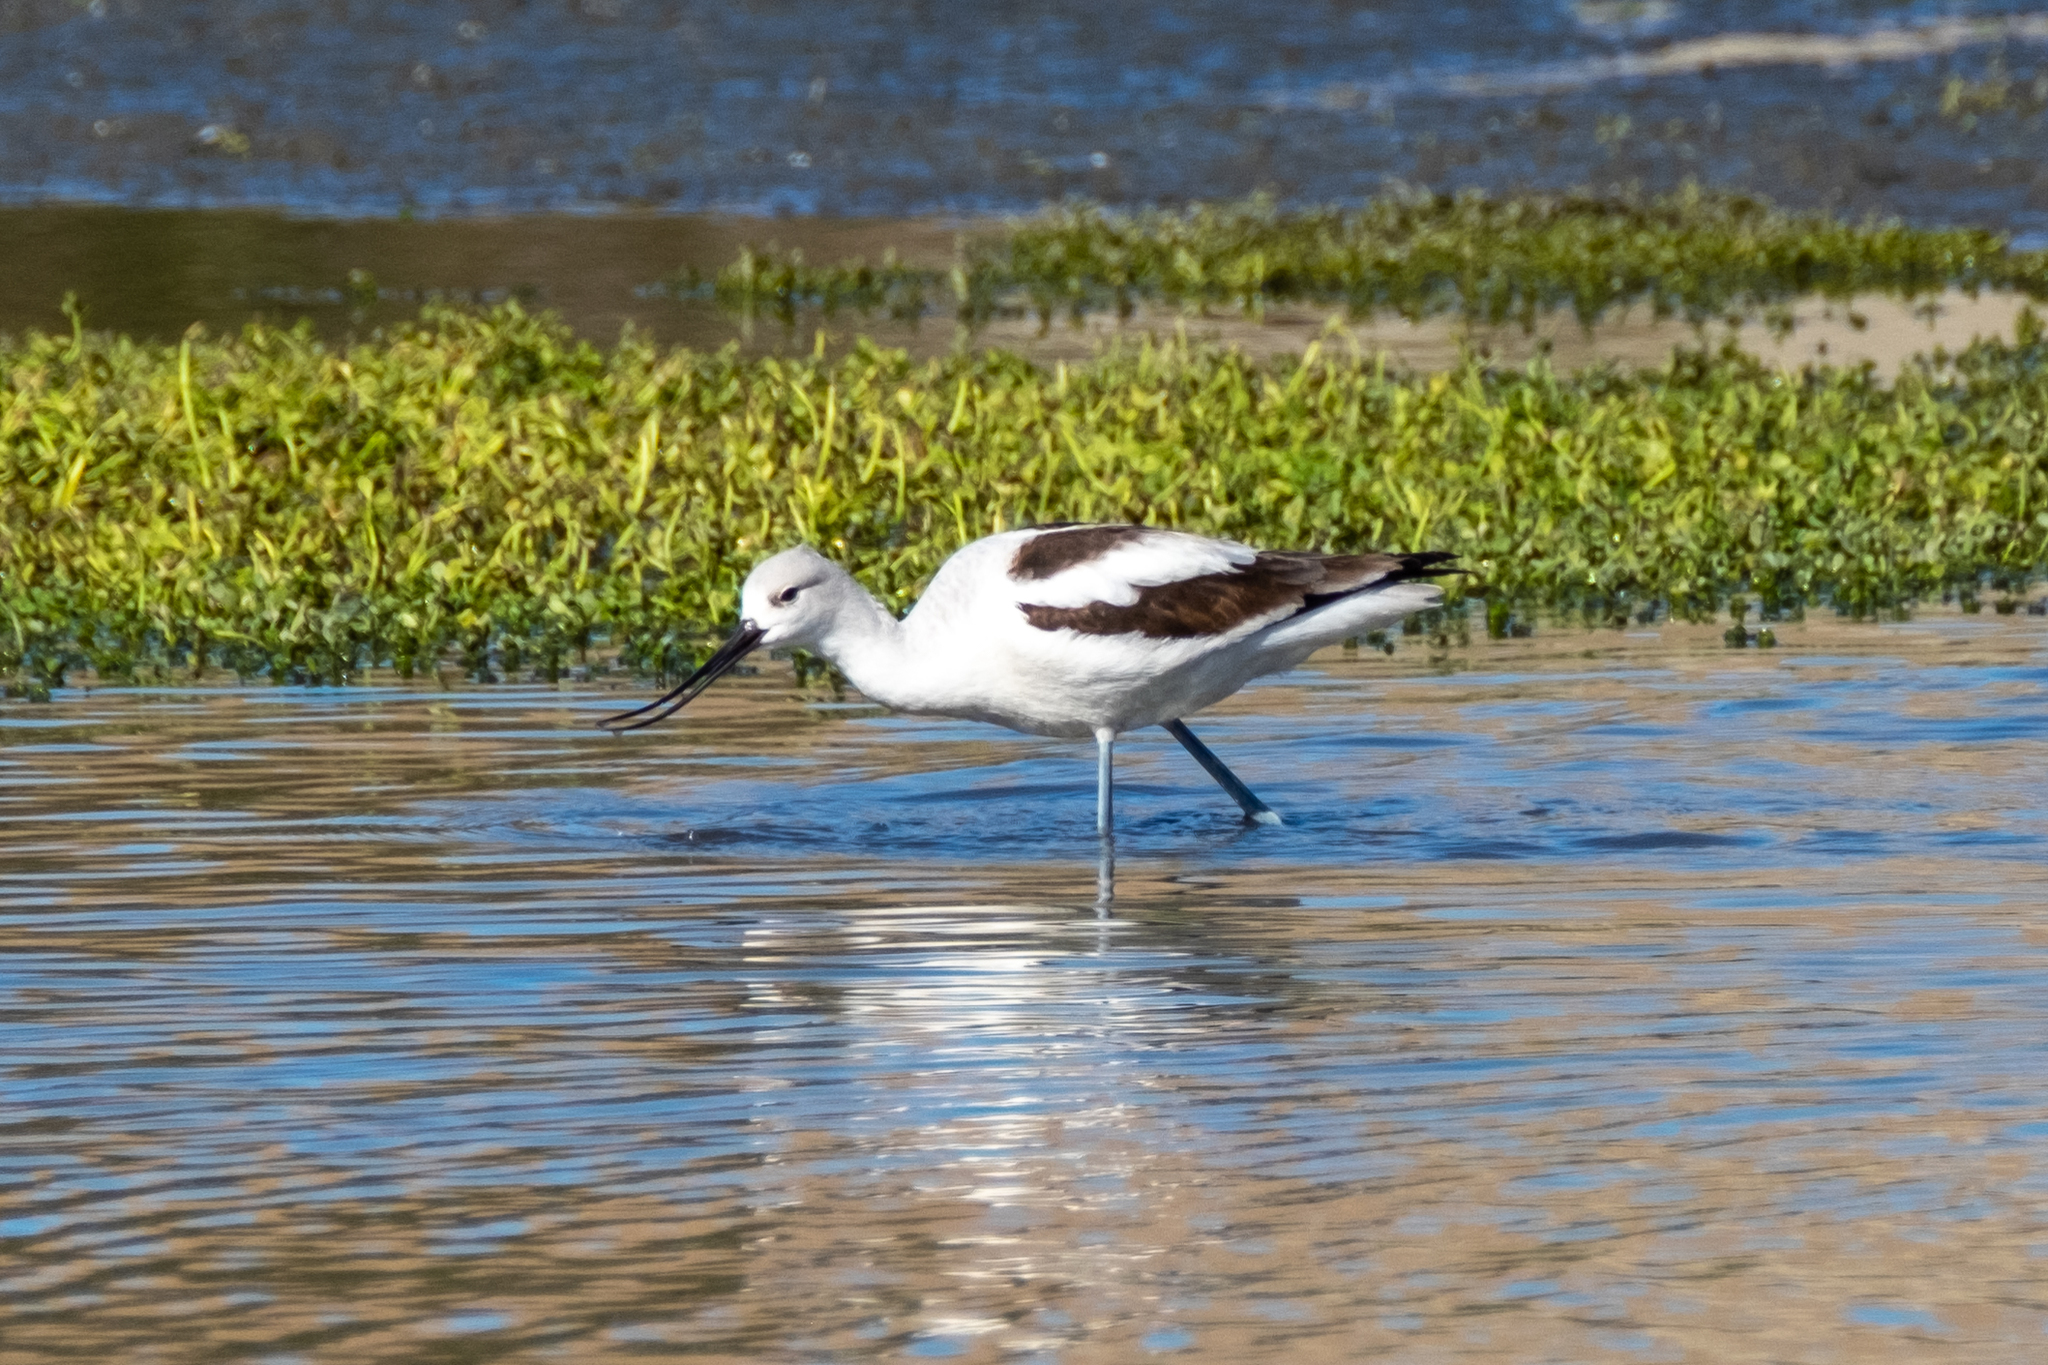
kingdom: Animalia
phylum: Chordata
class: Aves
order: Charadriiformes
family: Recurvirostridae
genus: Recurvirostra
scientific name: Recurvirostra americana
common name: American avocet
